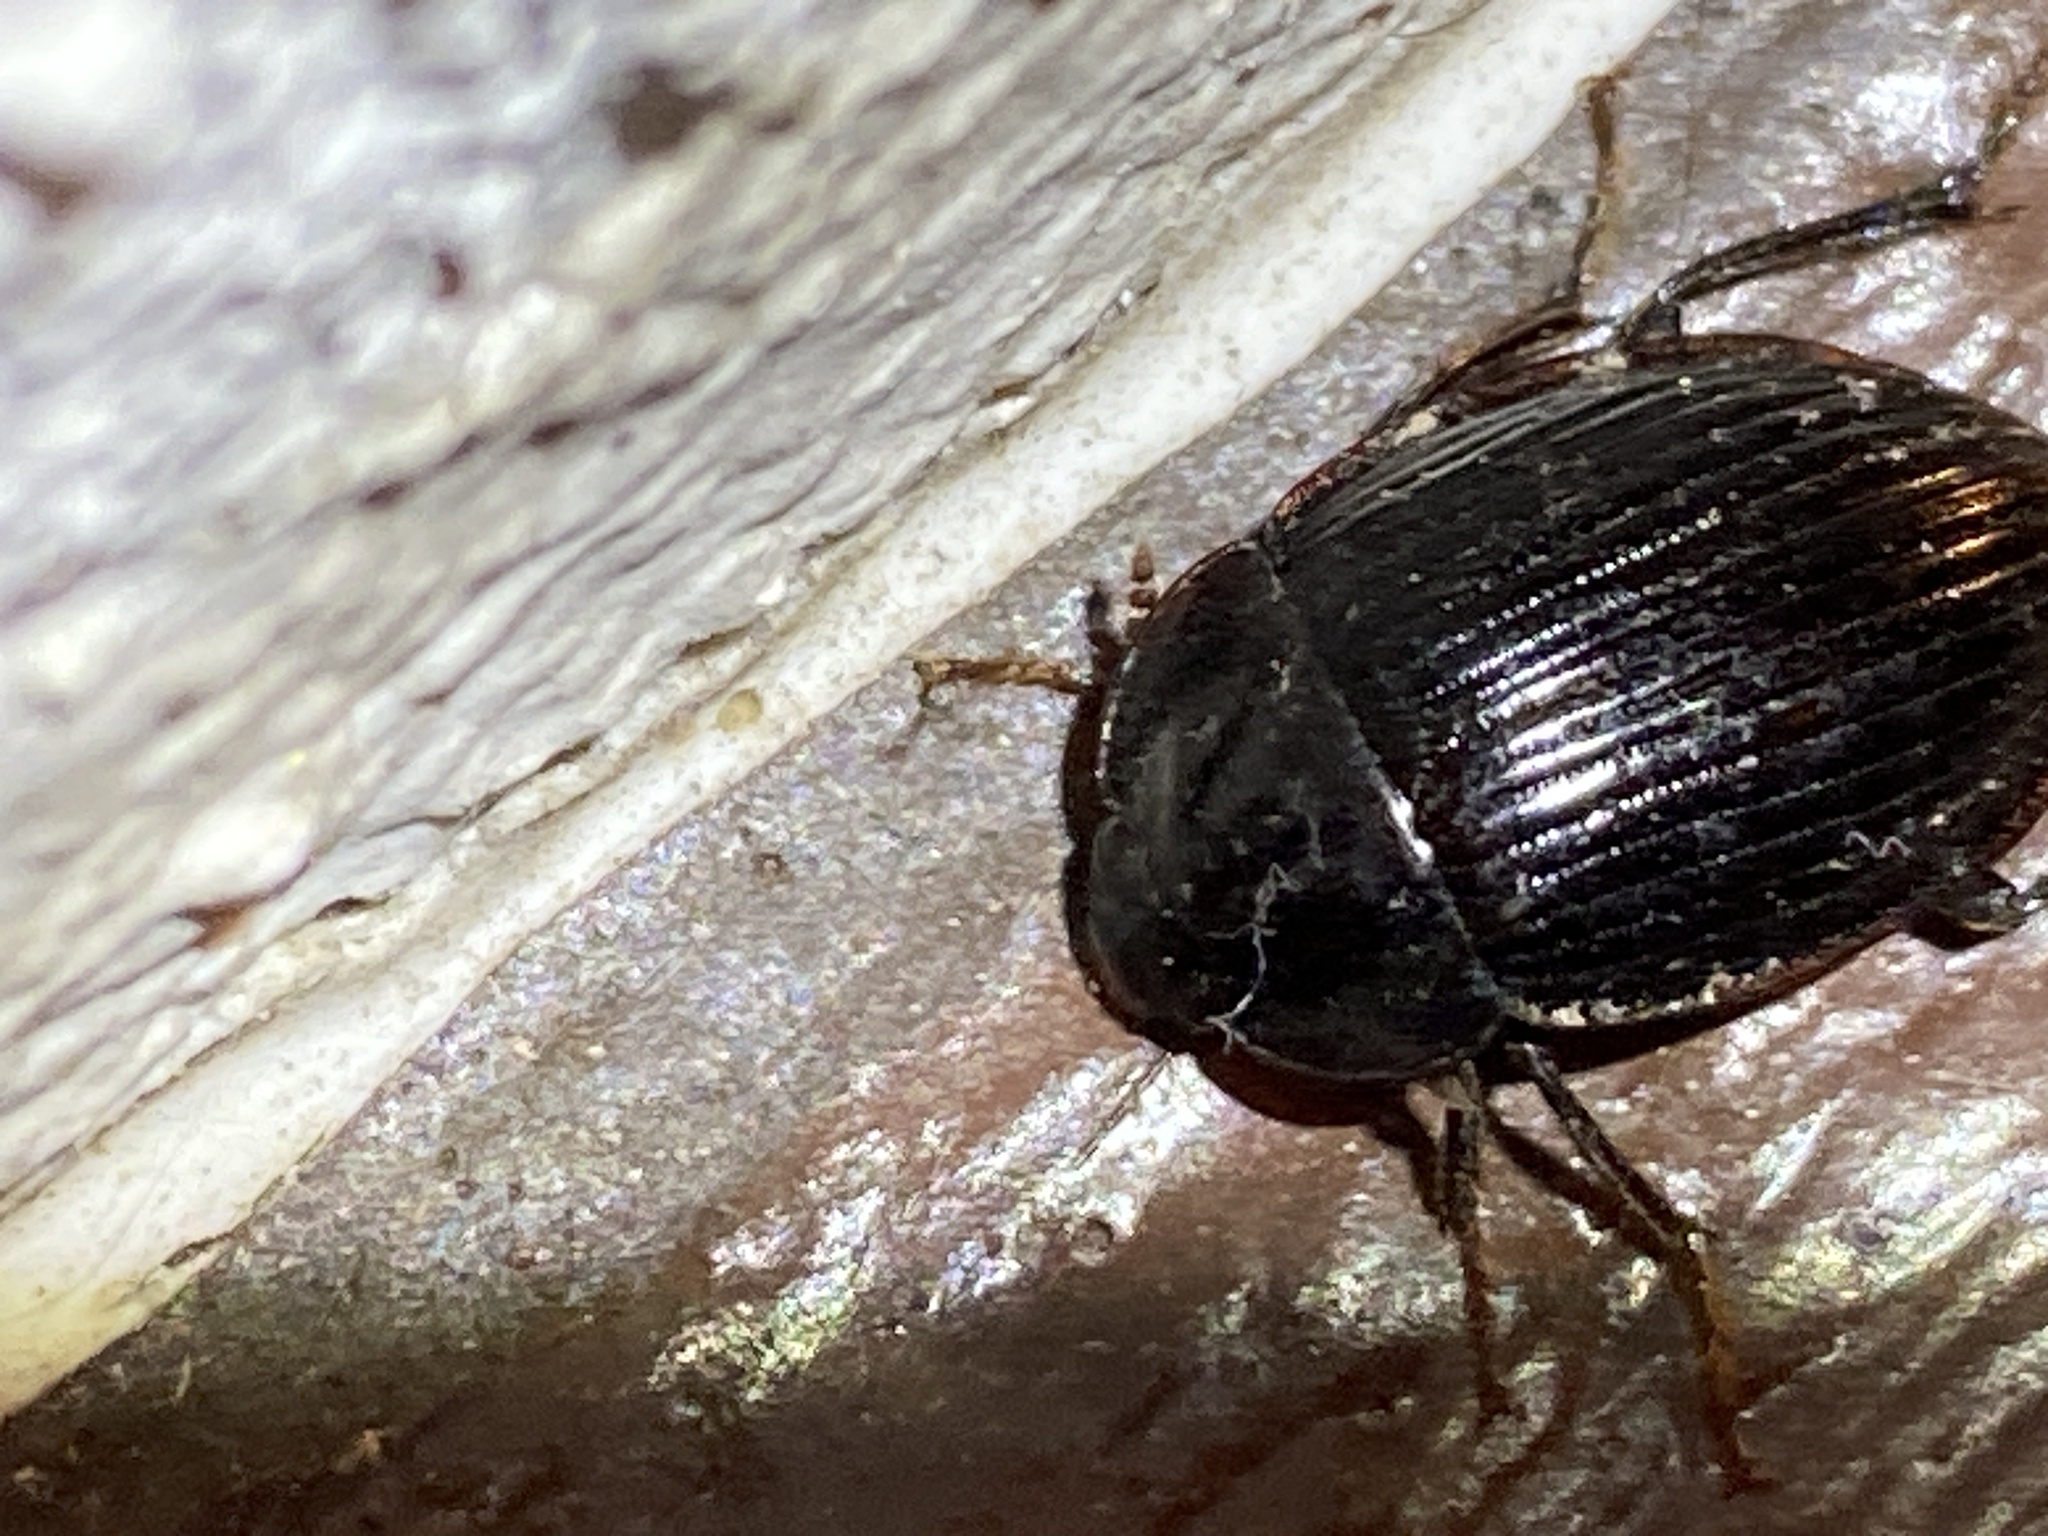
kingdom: Animalia
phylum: Arthropoda
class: Insecta
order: Coleoptera
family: Agyrtidae
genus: Necrophilus
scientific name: Necrophilus hydrophiloides
